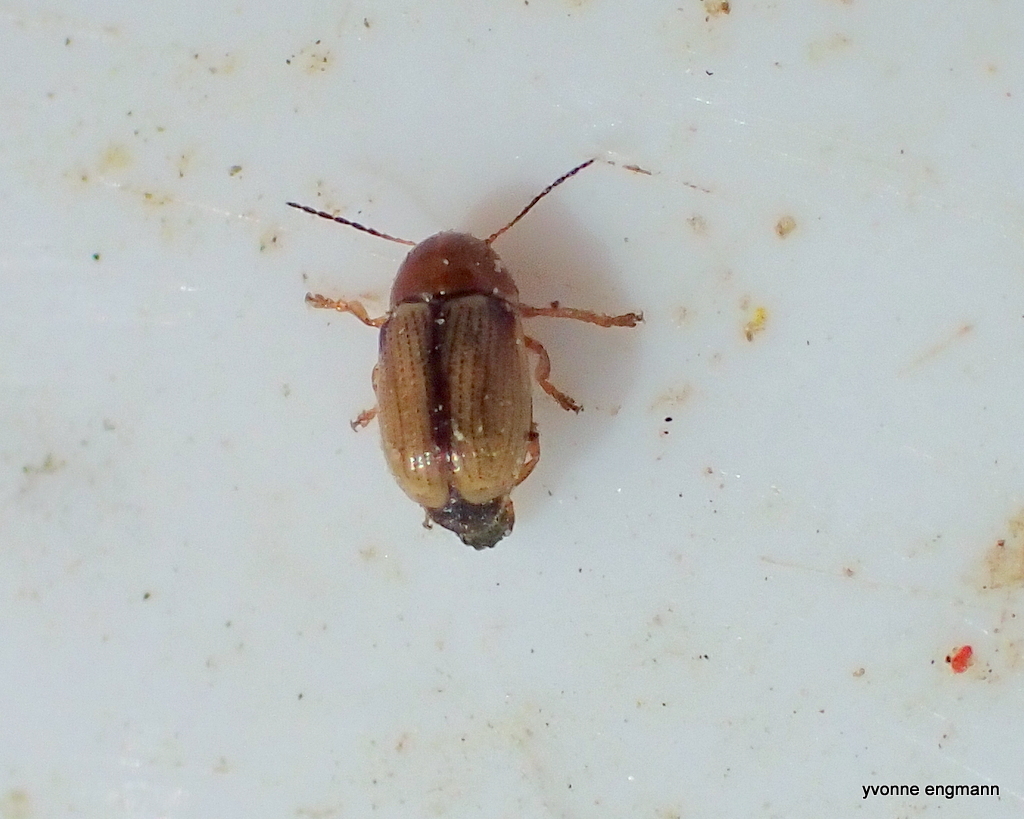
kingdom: Animalia
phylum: Arthropoda
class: Insecta
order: Coleoptera
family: Chrysomelidae
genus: Cryptocephalus
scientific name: Cryptocephalus fulvus
